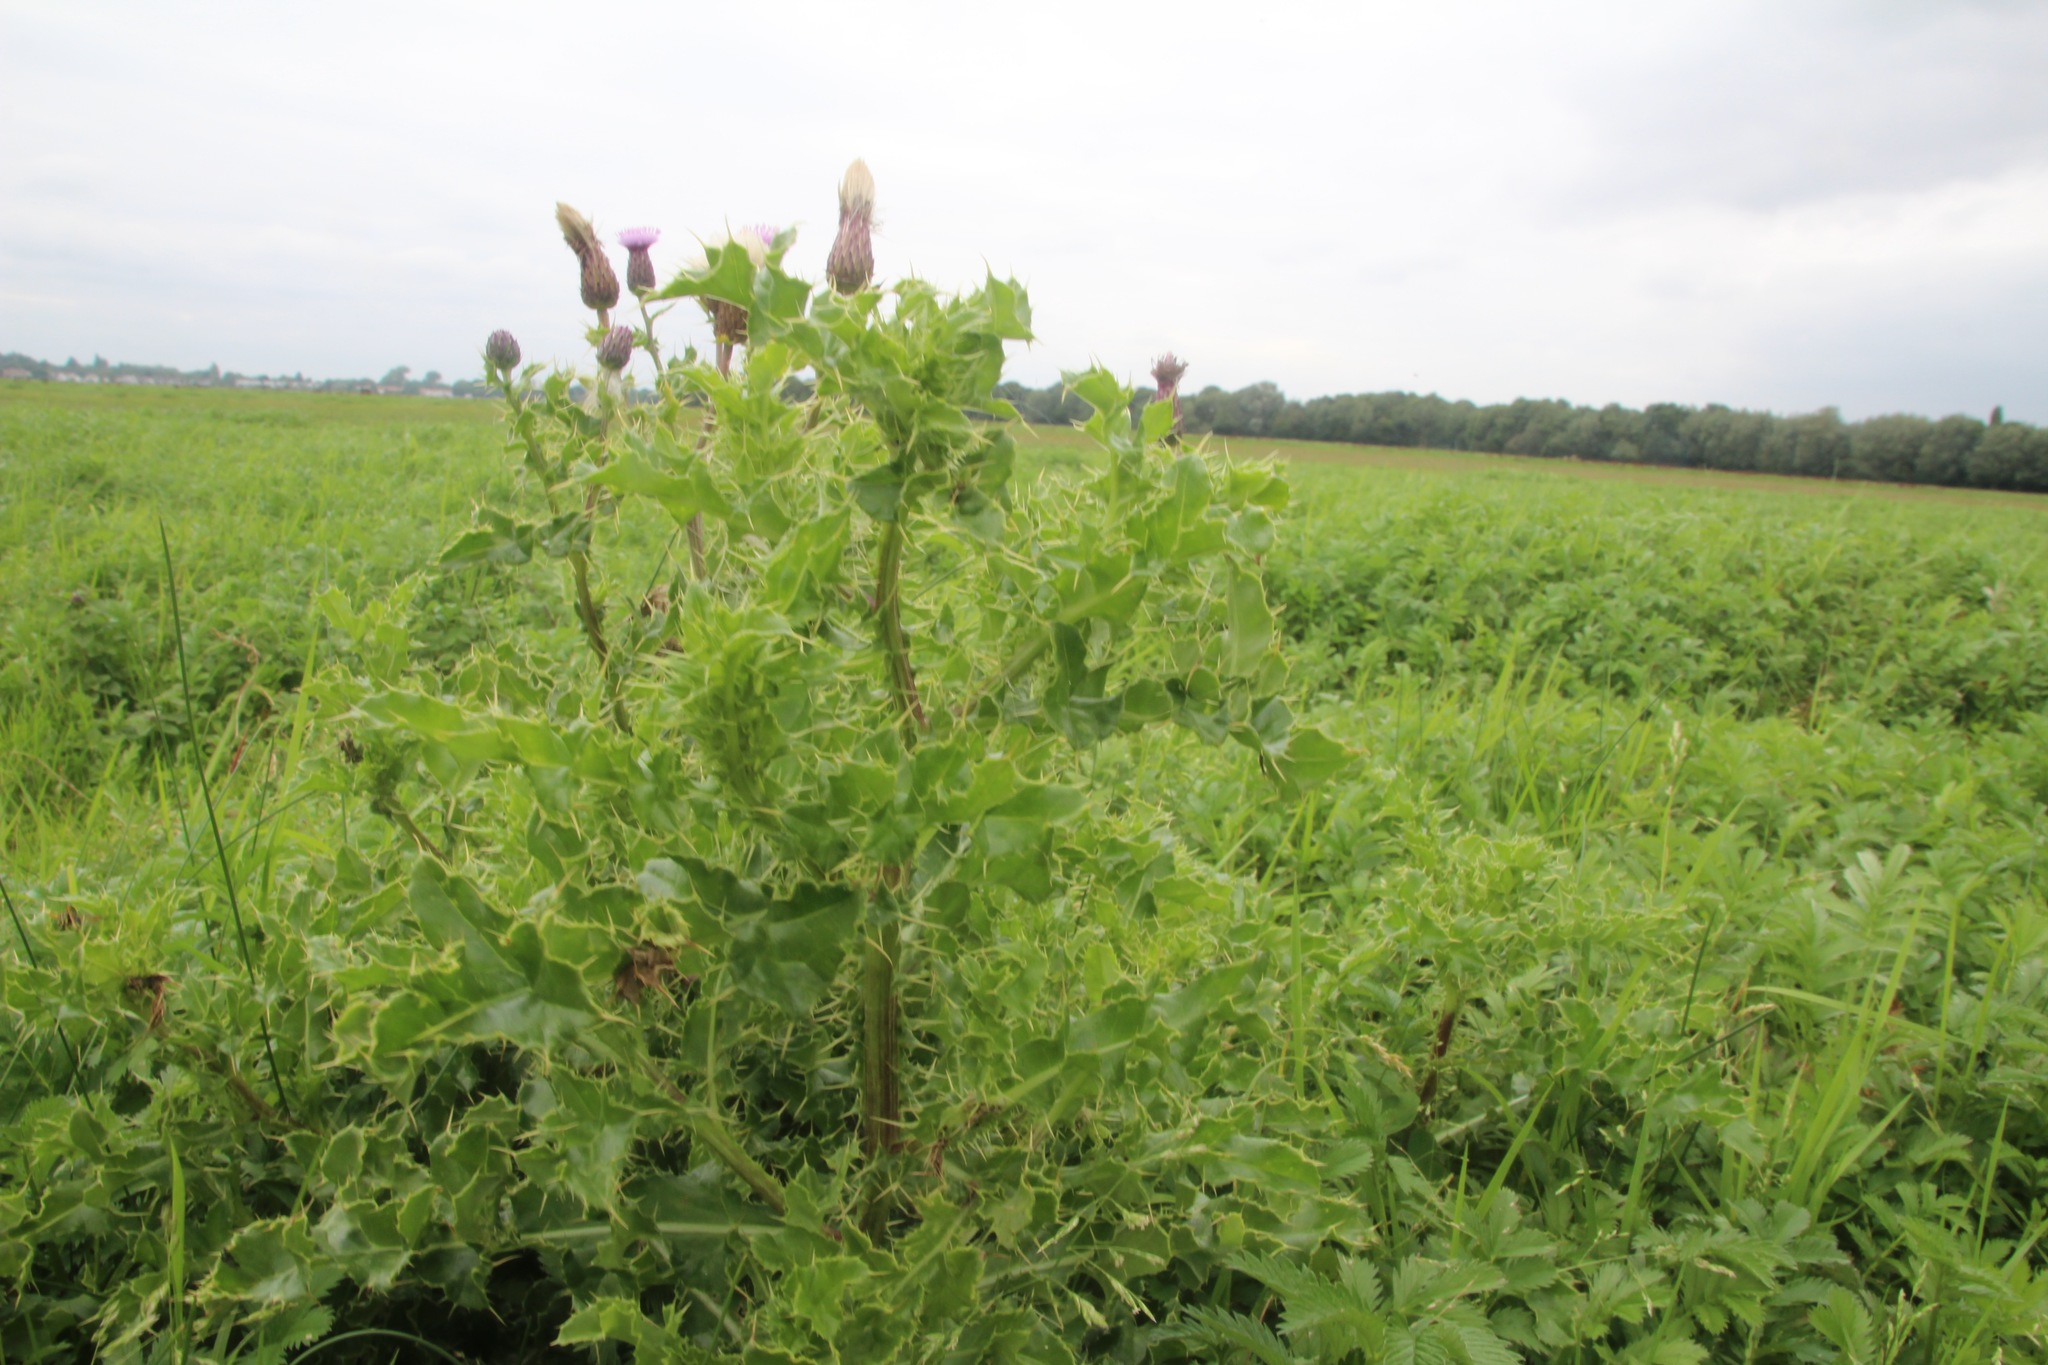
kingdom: Plantae
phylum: Tracheophyta
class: Magnoliopsida
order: Asterales
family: Asteraceae
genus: Cirsium
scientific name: Cirsium arvense
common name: Creeping thistle
